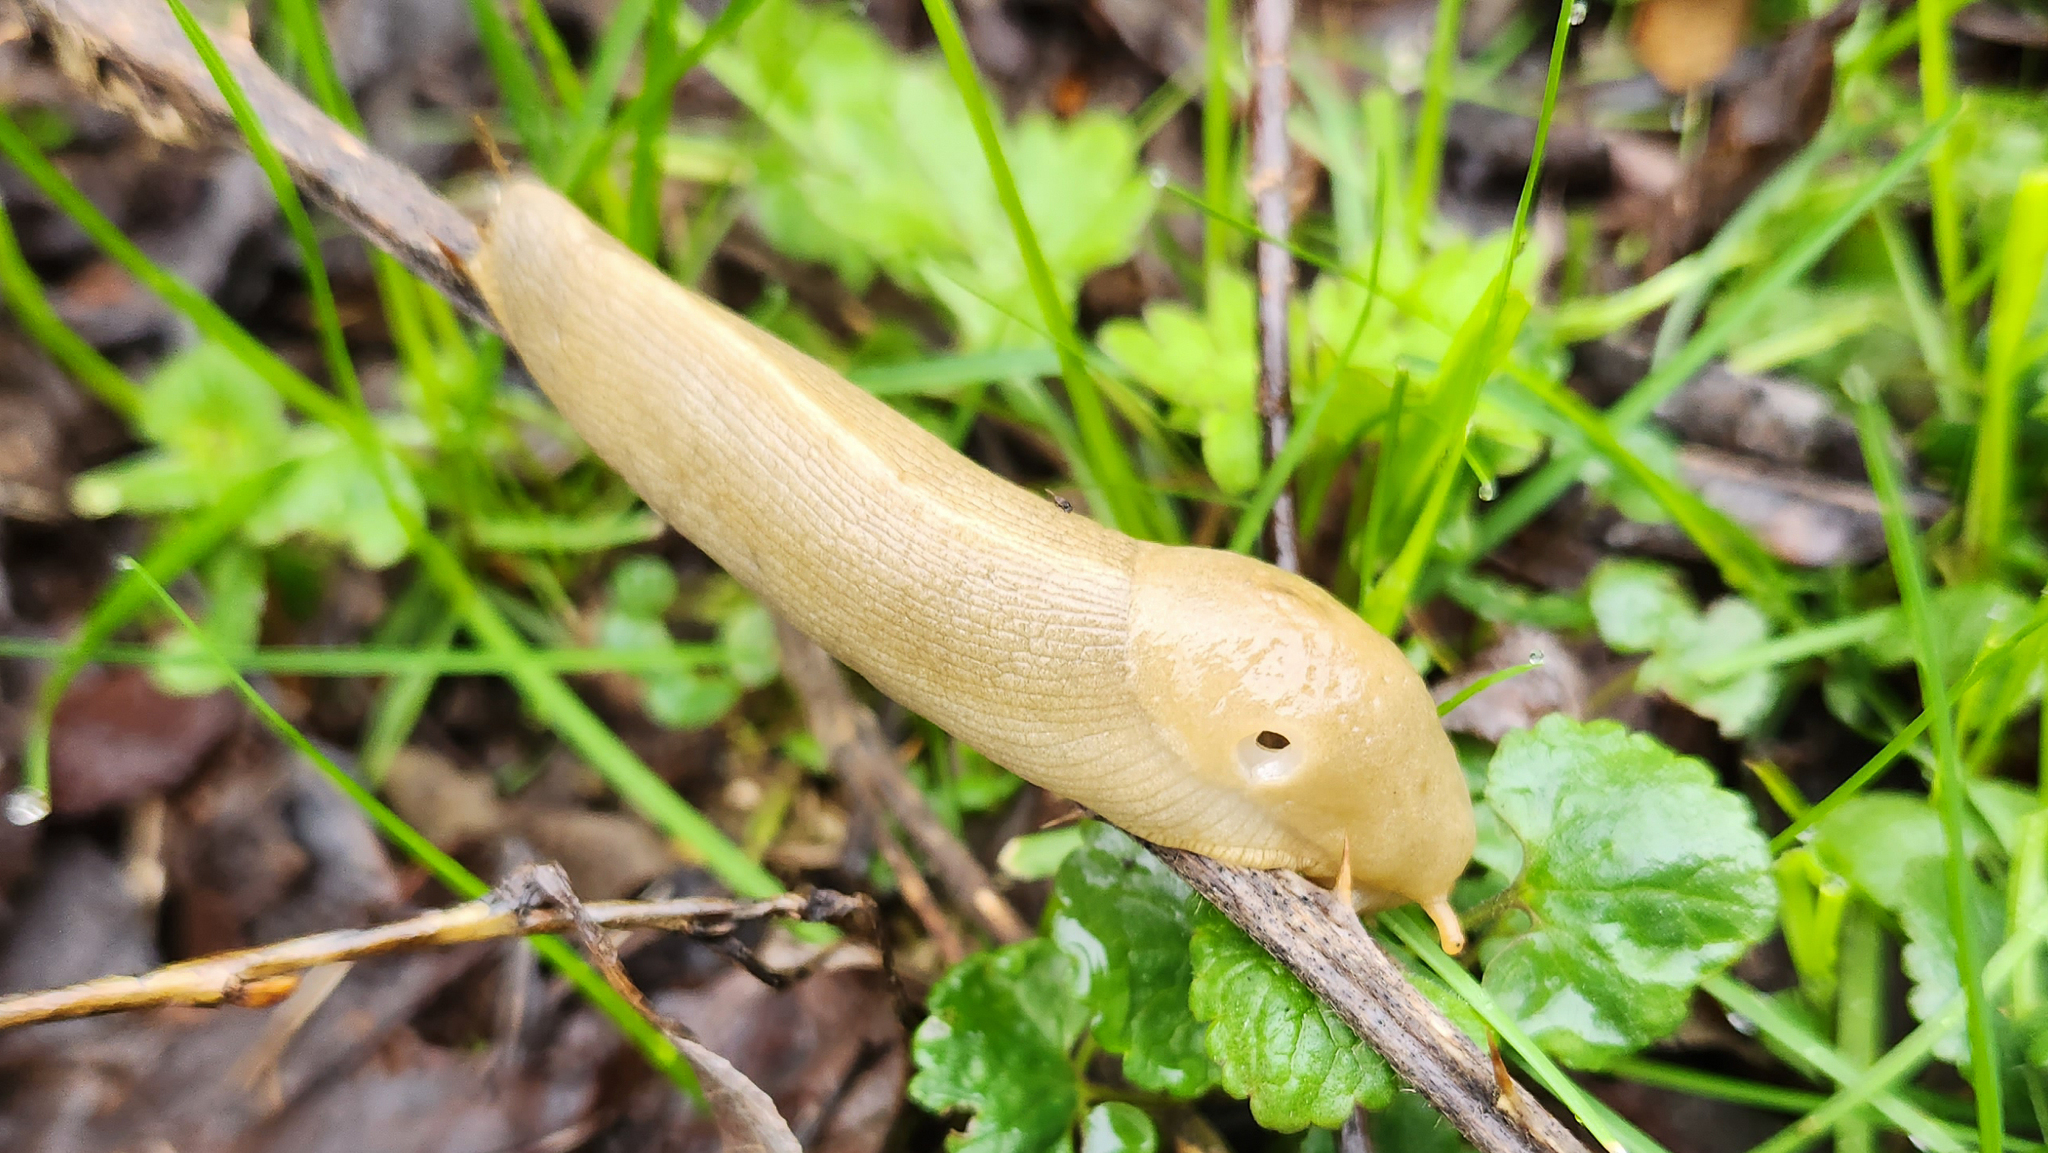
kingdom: Animalia
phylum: Mollusca
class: Gastropoda
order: Stylommatophora
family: Ariolimacidae
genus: Ariolimax
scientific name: Ariolimax columbianus
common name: Pacific banana slug
